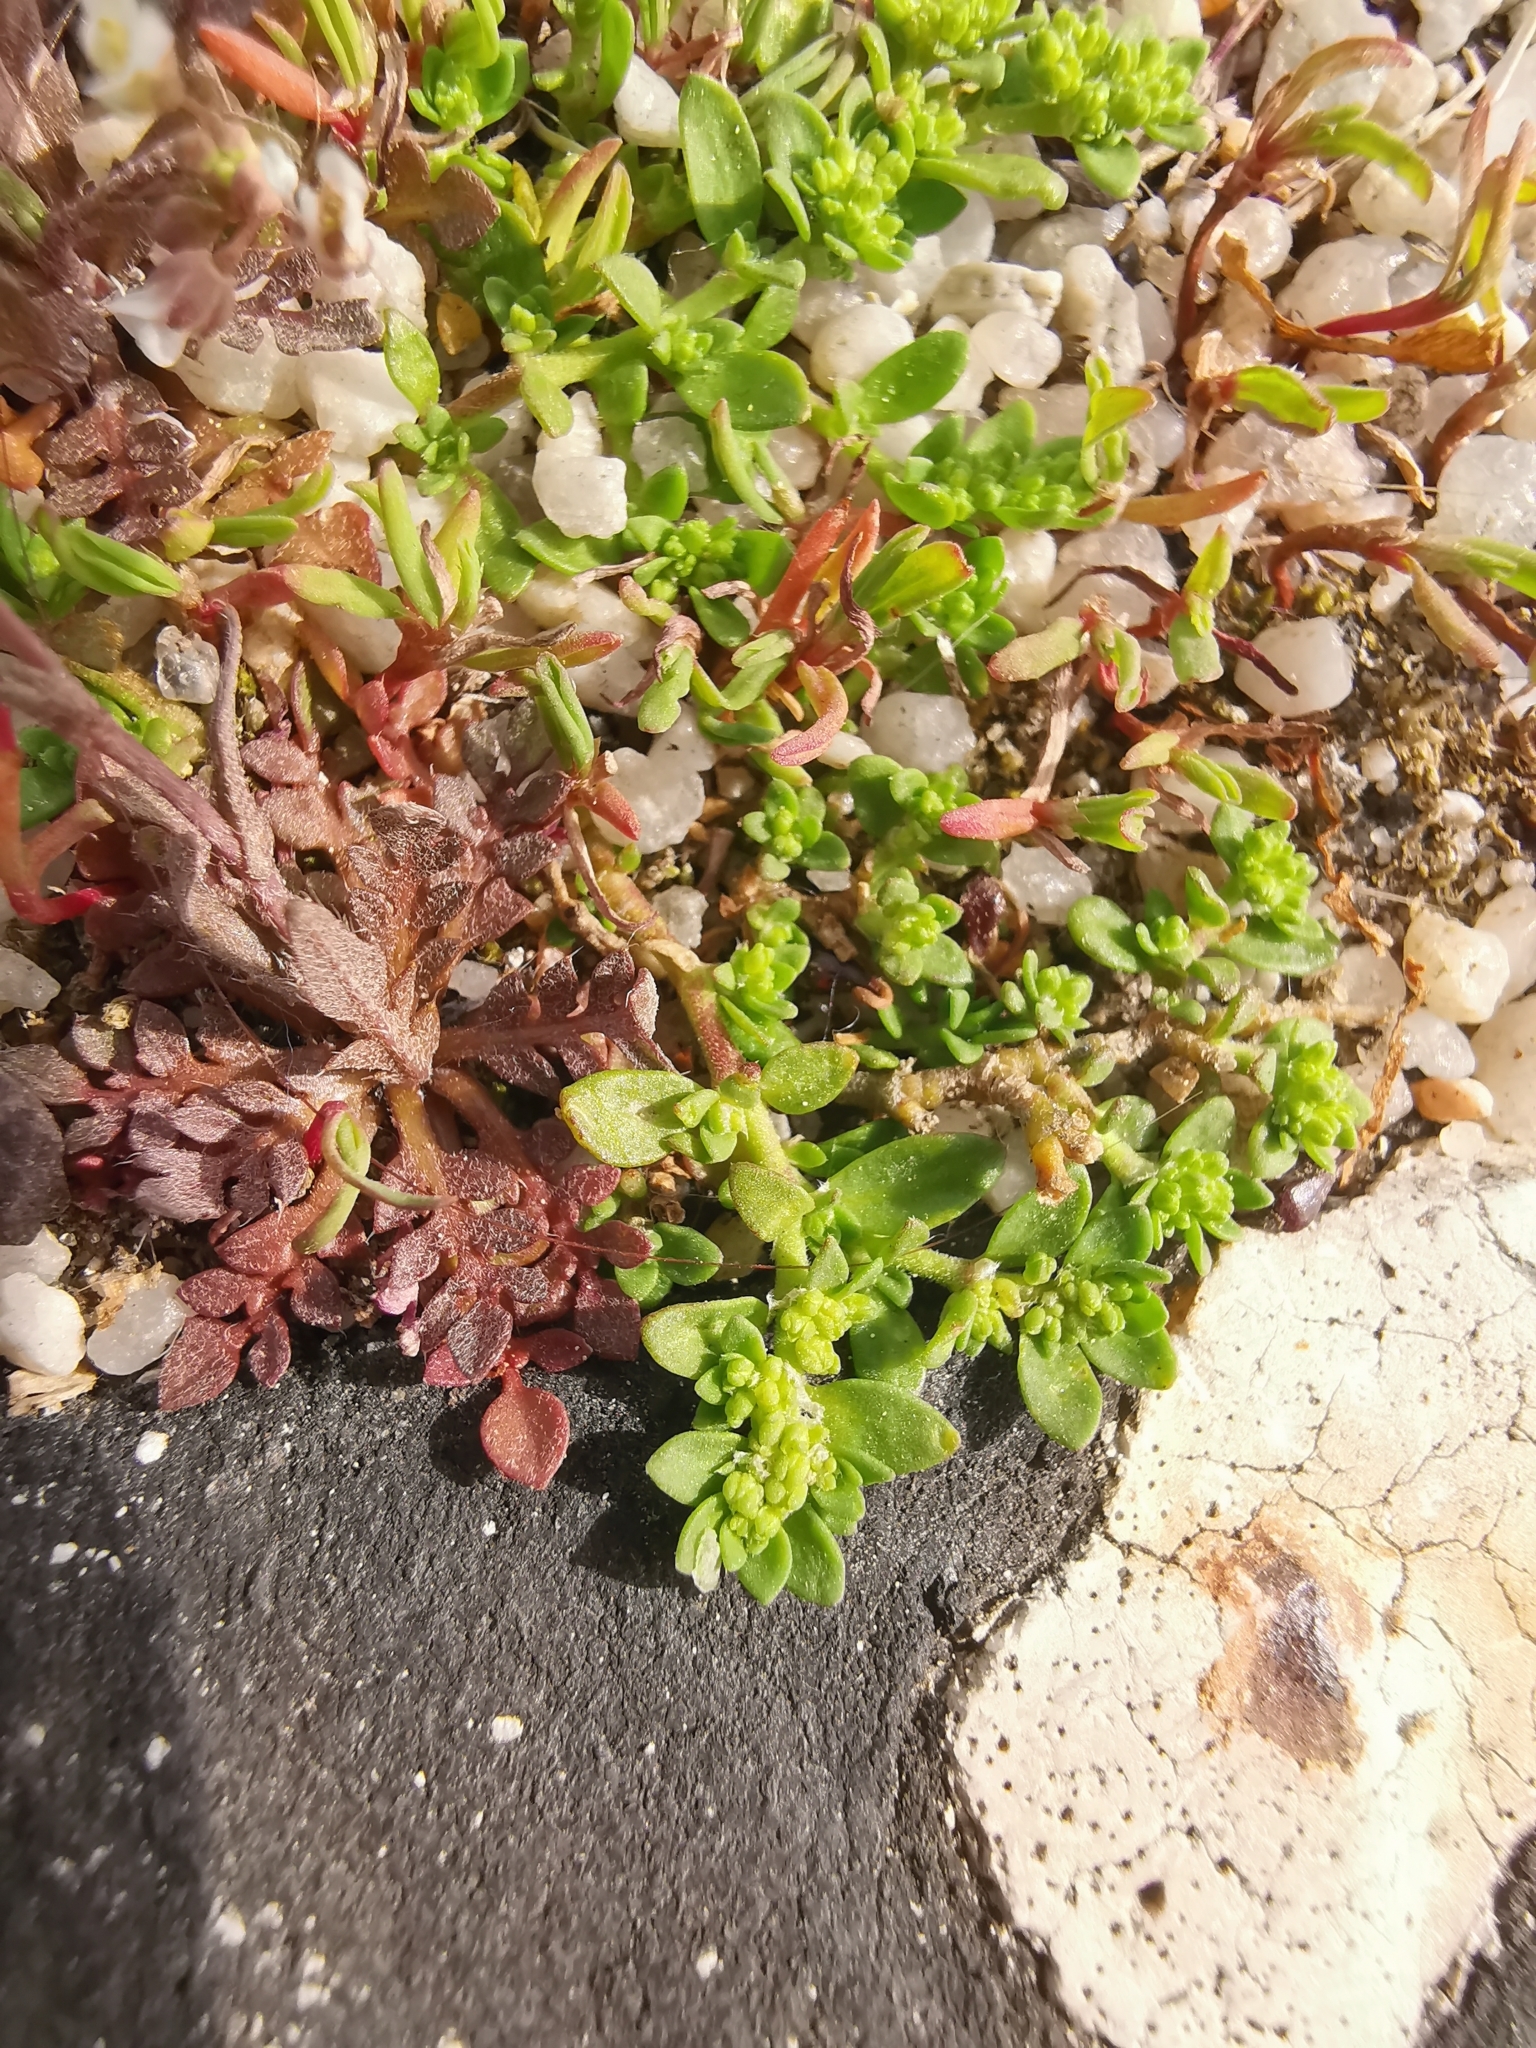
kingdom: Plantae
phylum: Tracheophyta
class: Magnoliopsida
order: Caryophyllales
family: Caryophyllaceae
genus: Herniaria
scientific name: Herniaria glabra
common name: Smooth rupturewort
